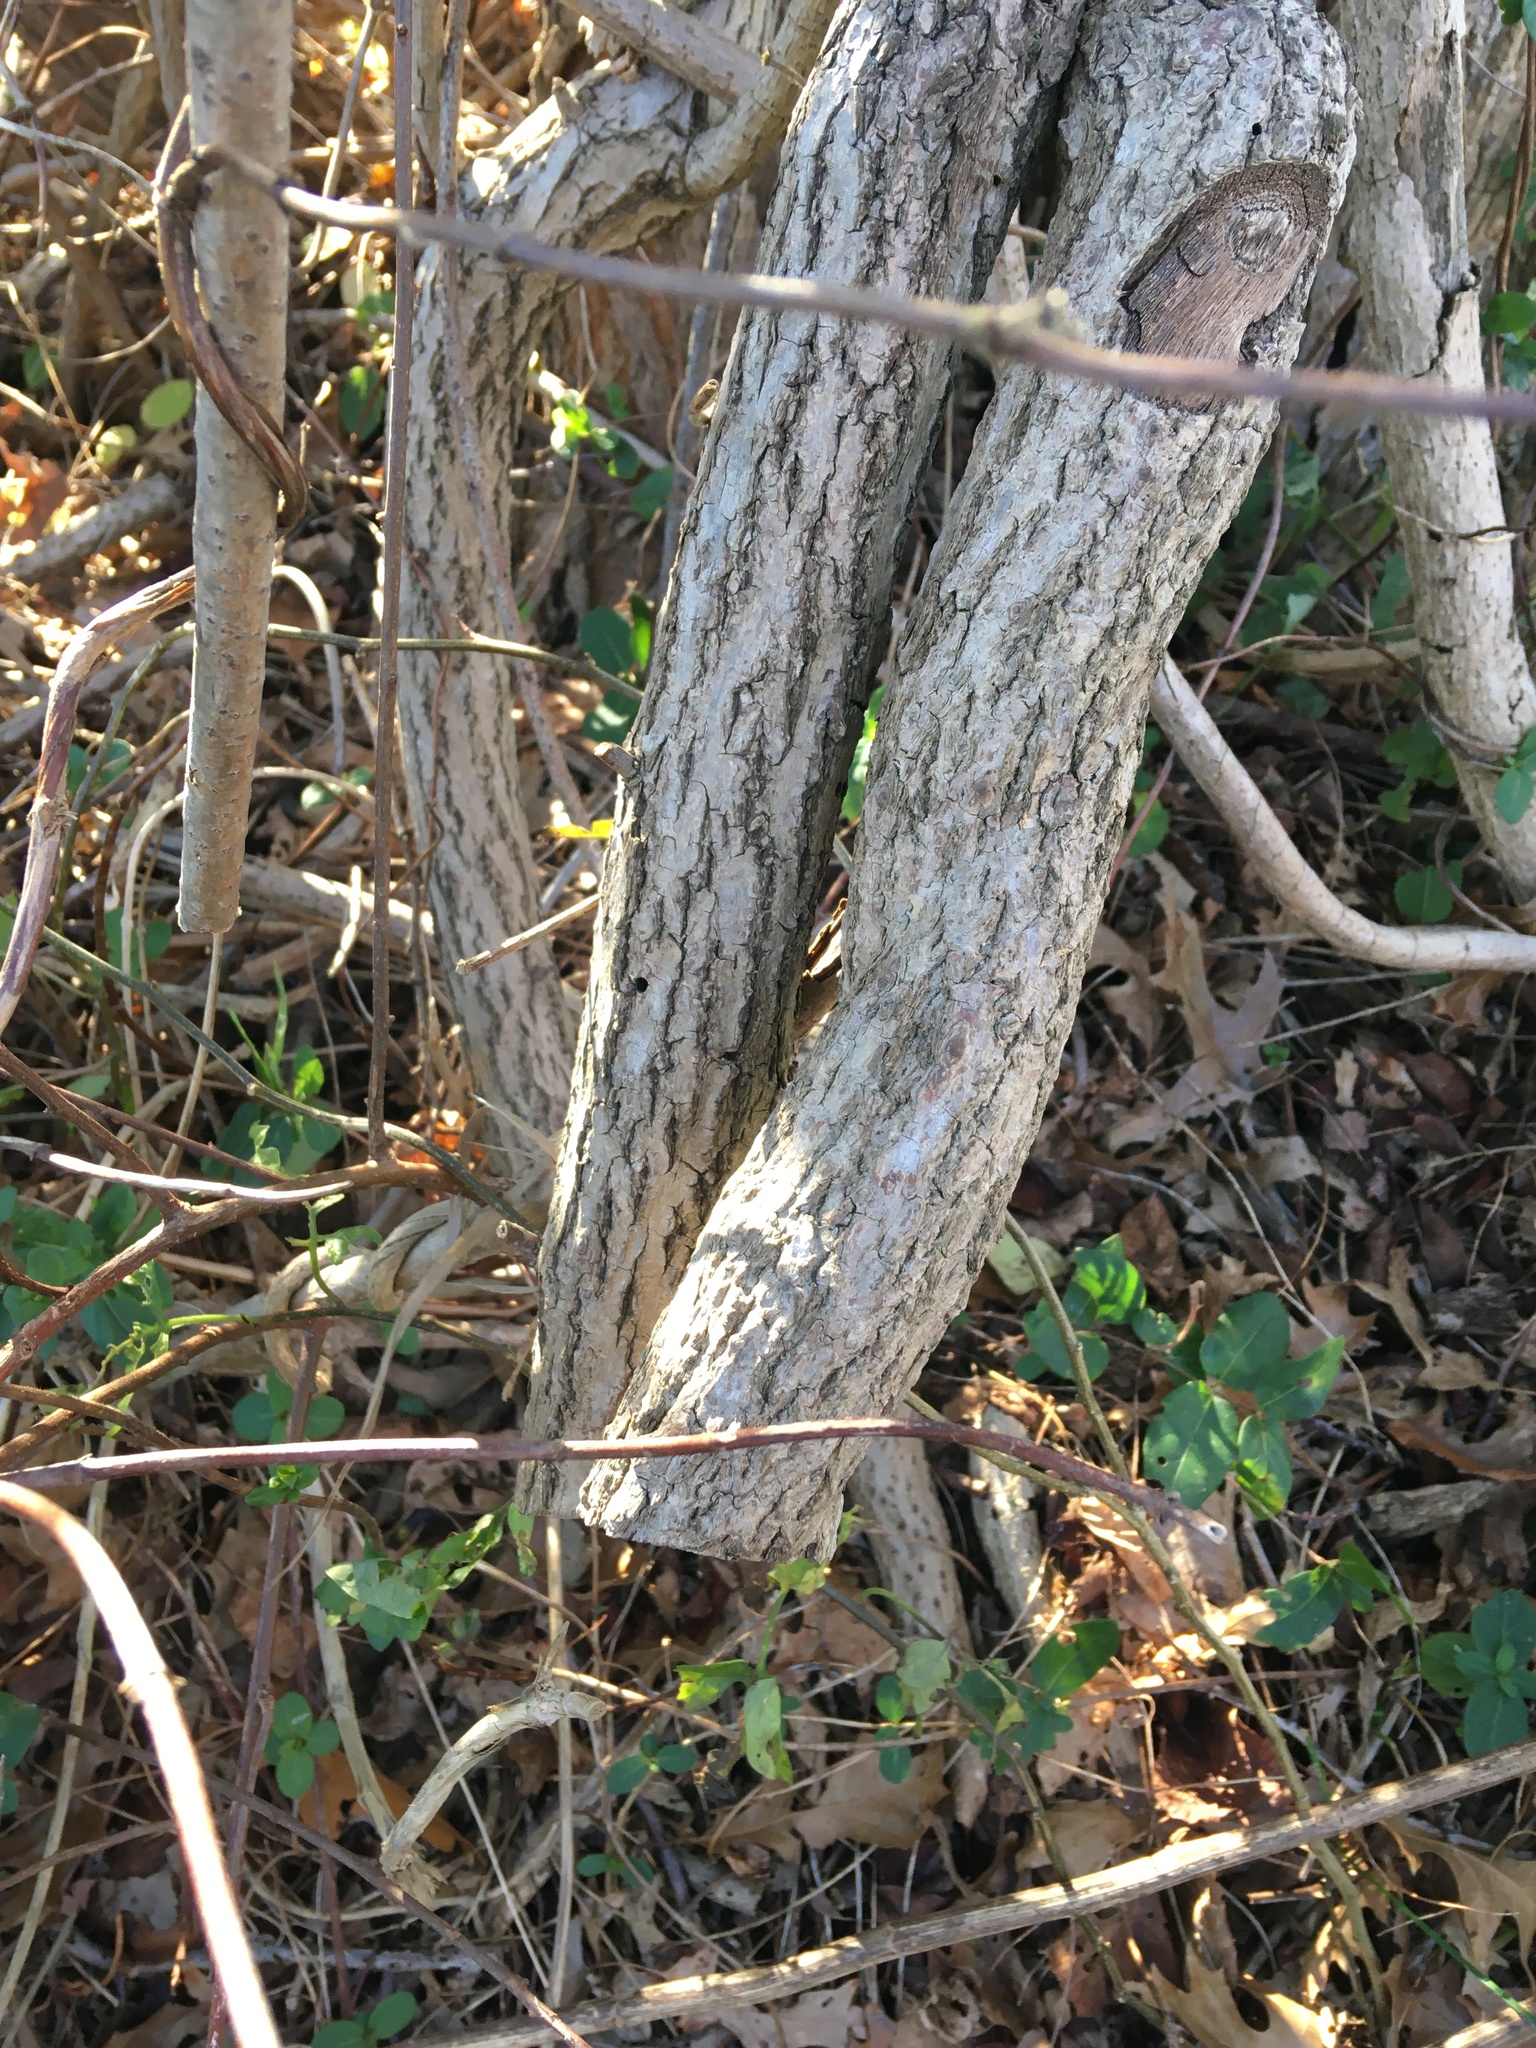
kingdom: Plantae
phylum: Tracheophyta
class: Magnoliopsida
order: Celastrales
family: Celastraceae
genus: Celastrus
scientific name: Celastrus orbiculatus
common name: Oriental bittersweet
